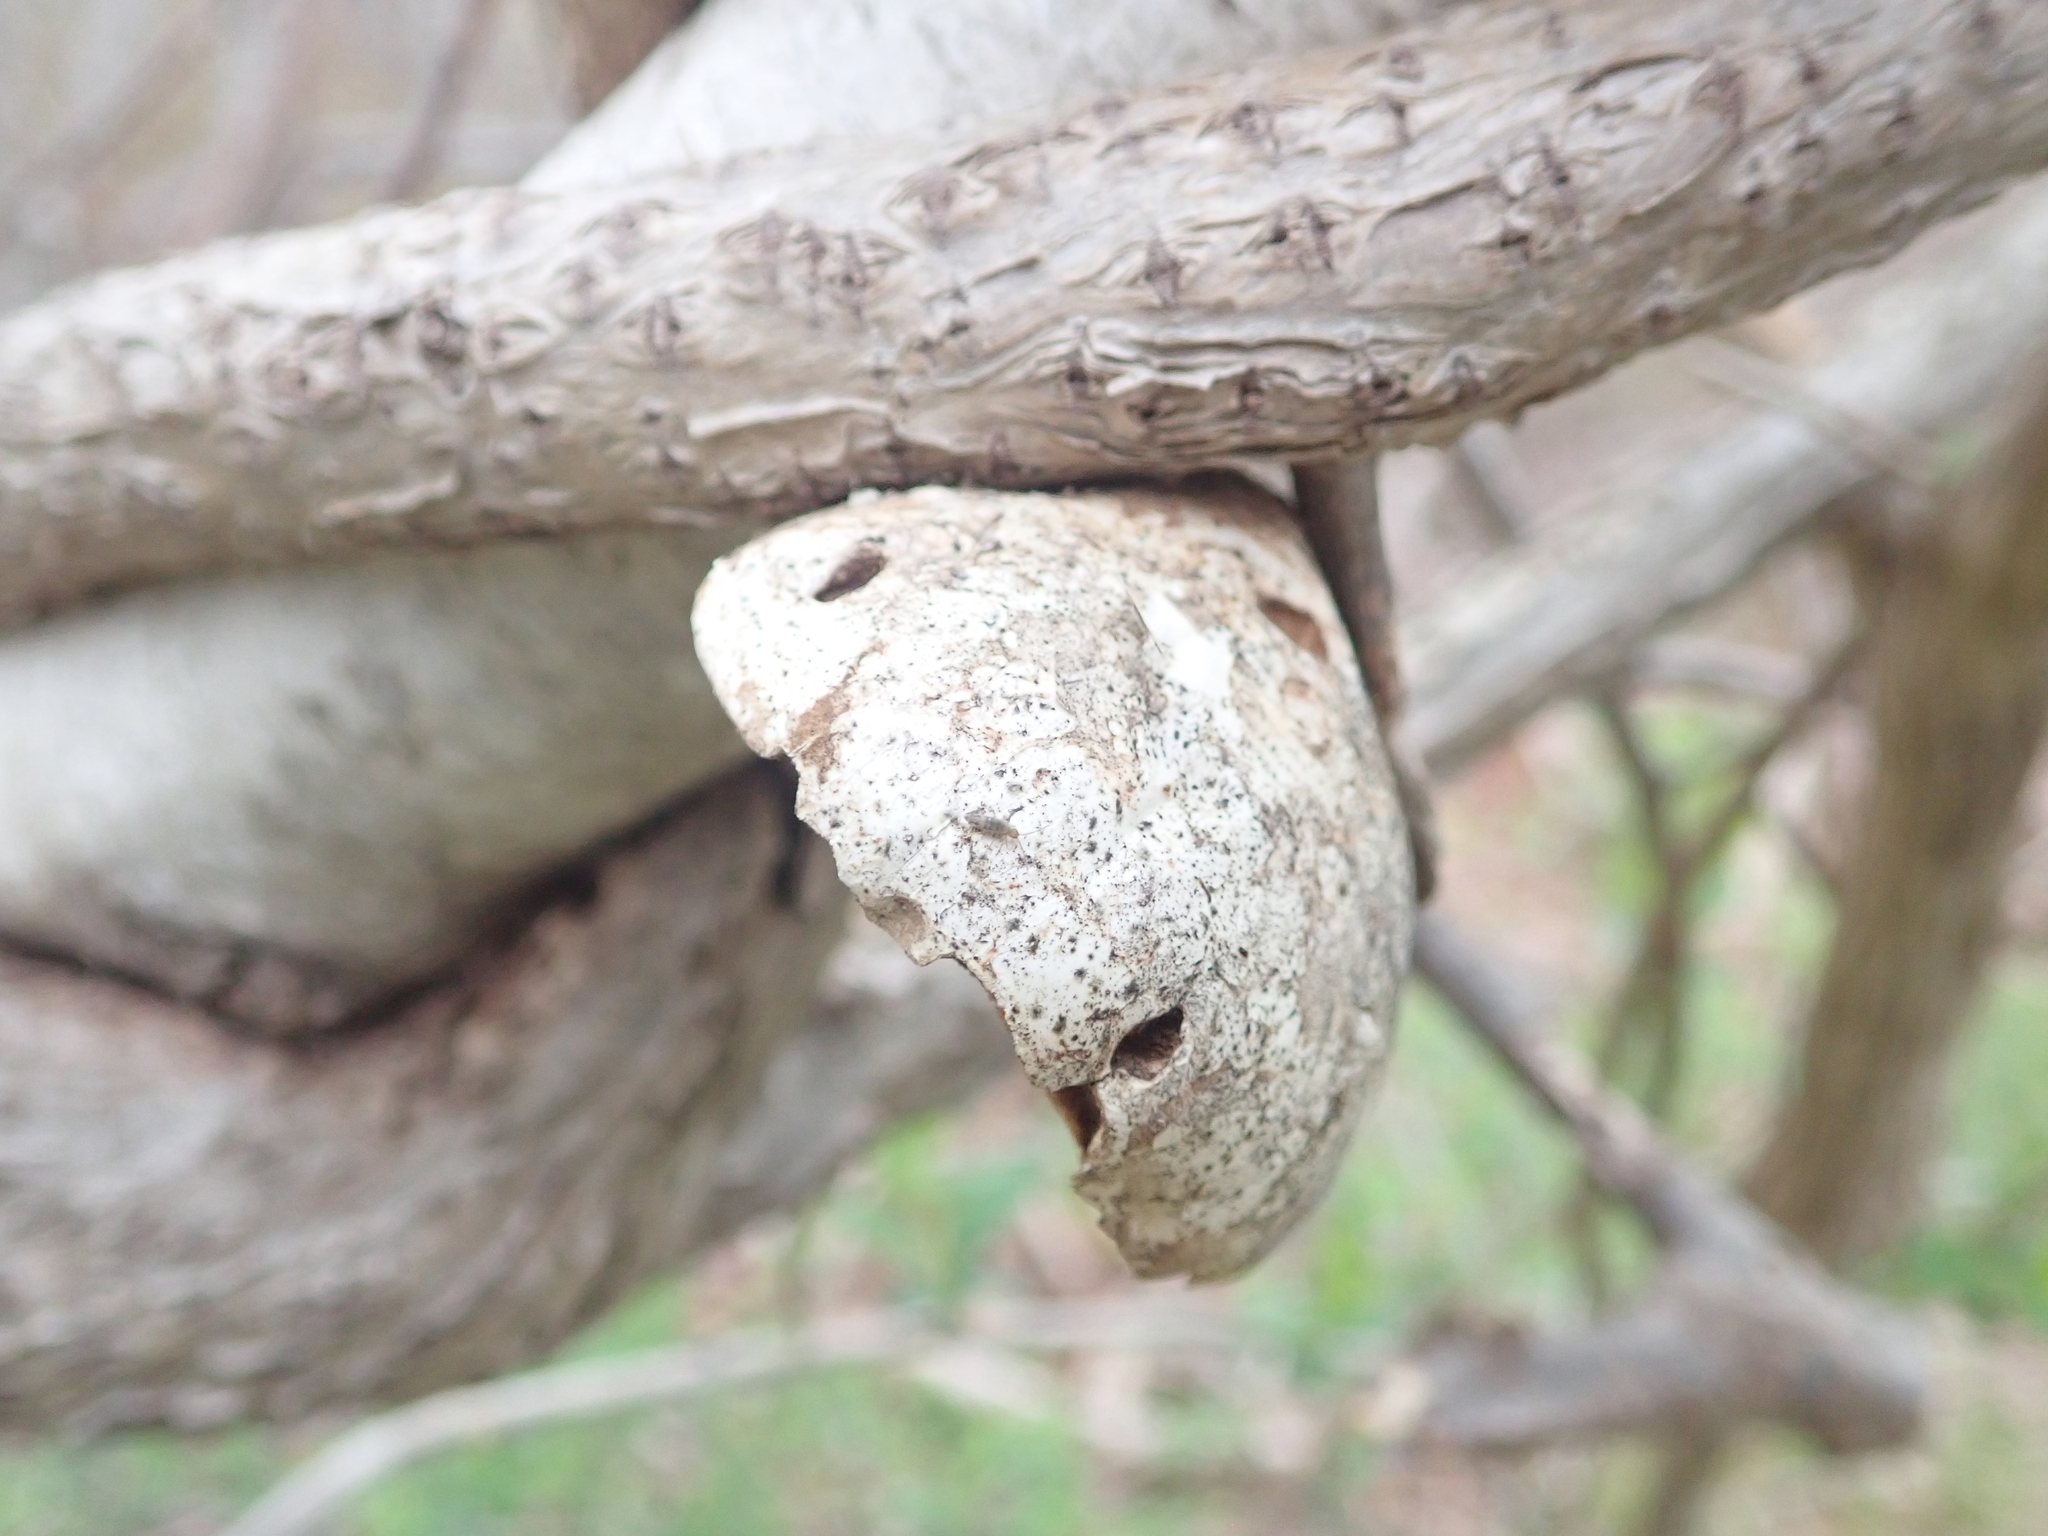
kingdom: Fungi
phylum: Basidiomycota
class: Agaricomycetes
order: Polyporales
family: Fomitopsidaceae
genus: Fomitopsis
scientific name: Fomitopsis betulina
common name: Birch polypore
